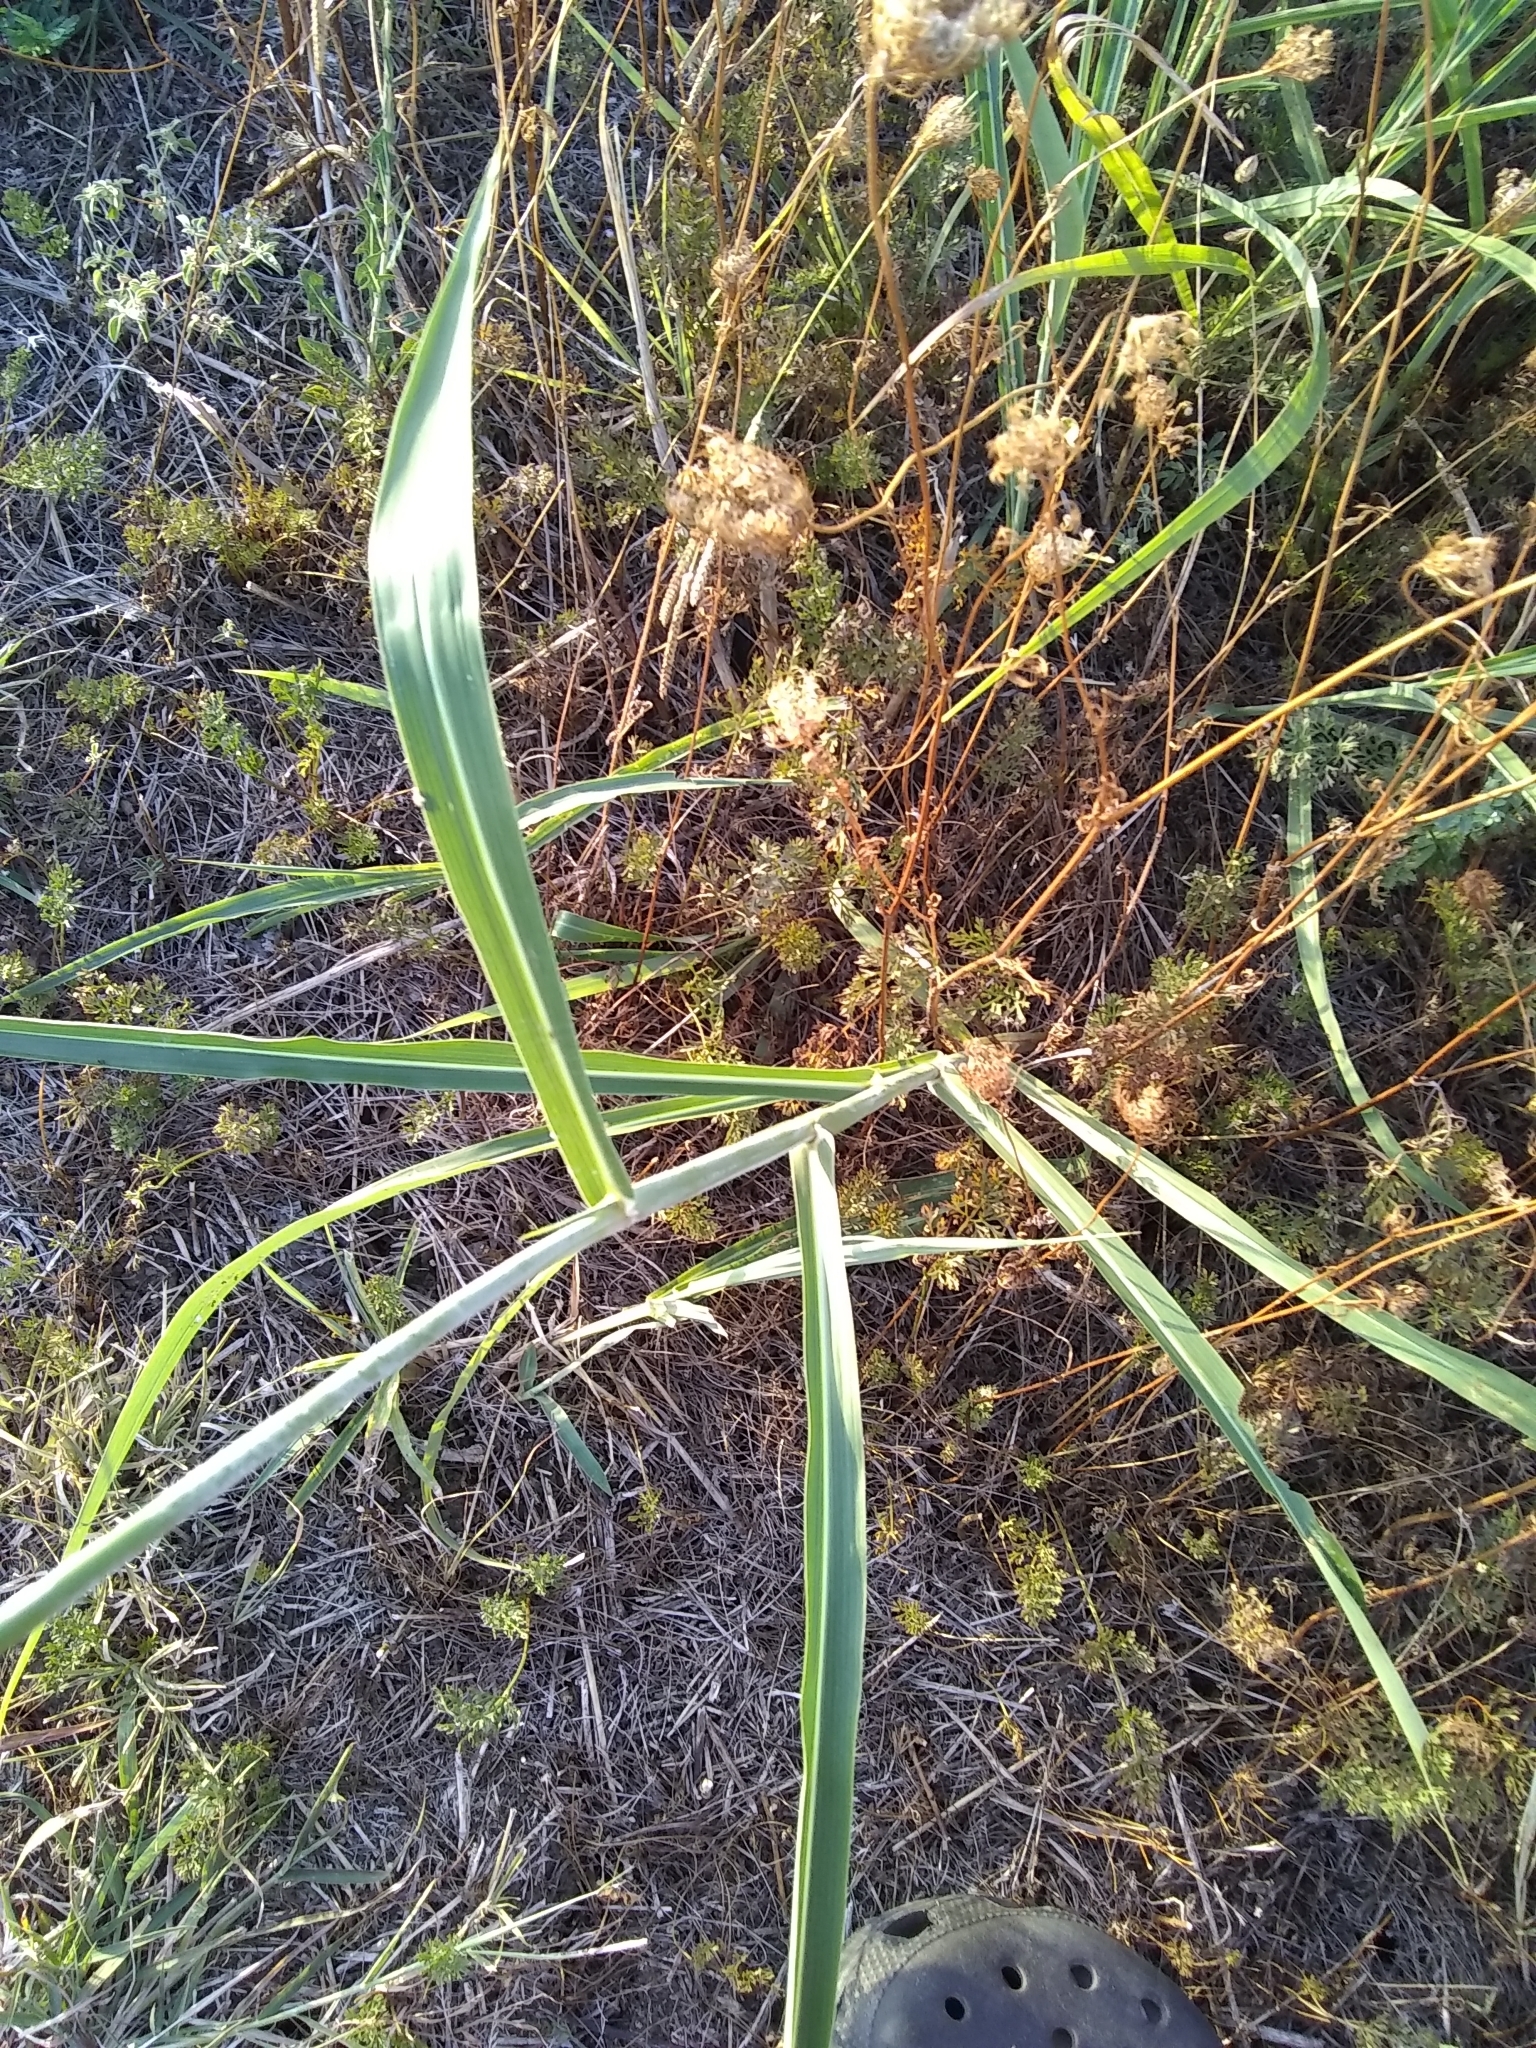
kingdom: Plantae
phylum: Tracheophyta
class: Liliopsida
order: Poales
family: Poaceae
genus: Sorghum
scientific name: Sorghum halepense
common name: Johnson-grass
